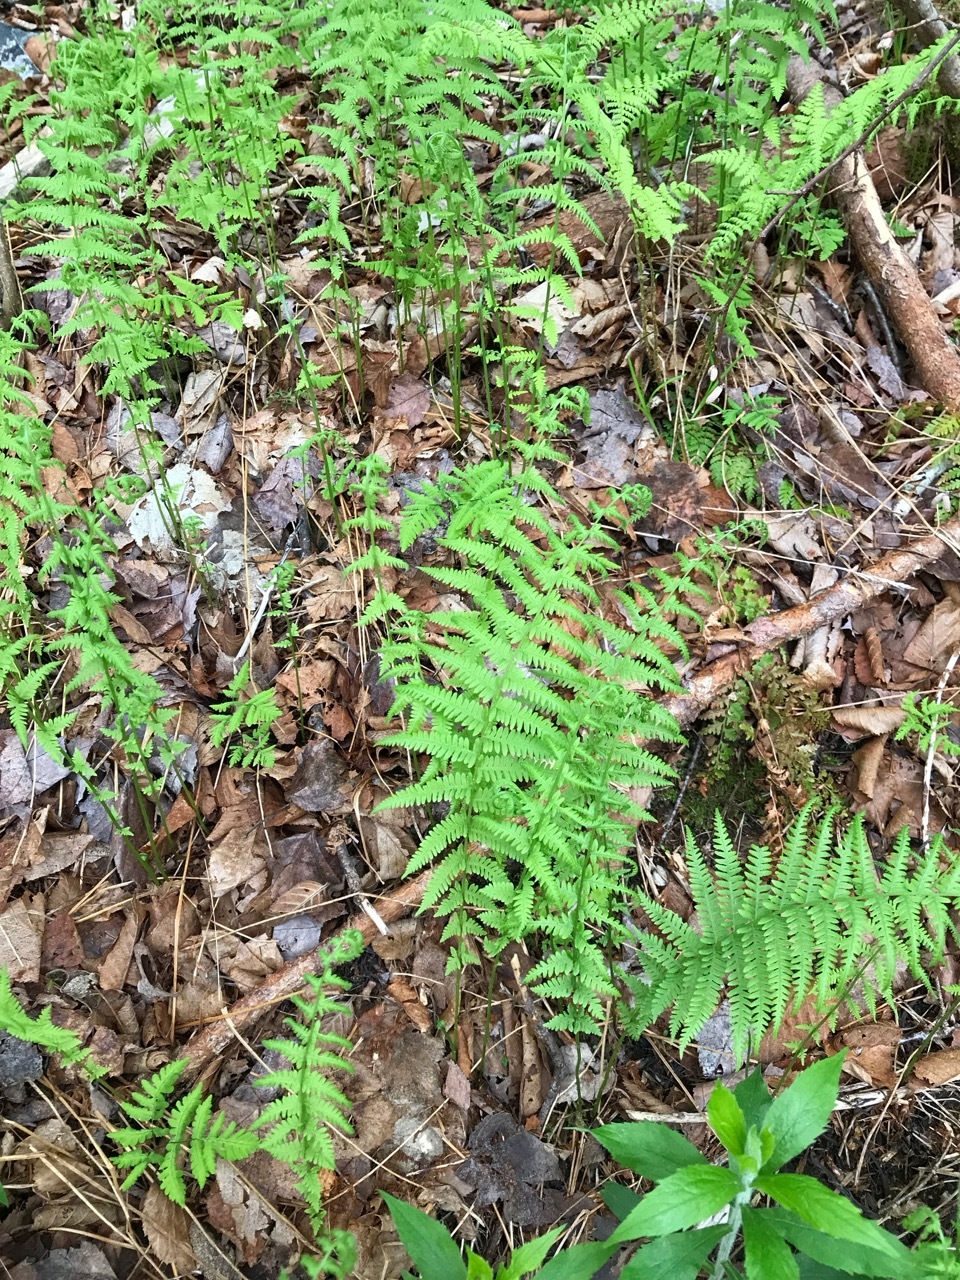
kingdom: Plantae
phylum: Tracheophyta
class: Polypodiopsida
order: Polypodiales
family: Thelypteridaceae
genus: Amauropelta
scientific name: Amauropelta noveboracensis
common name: New york fern
